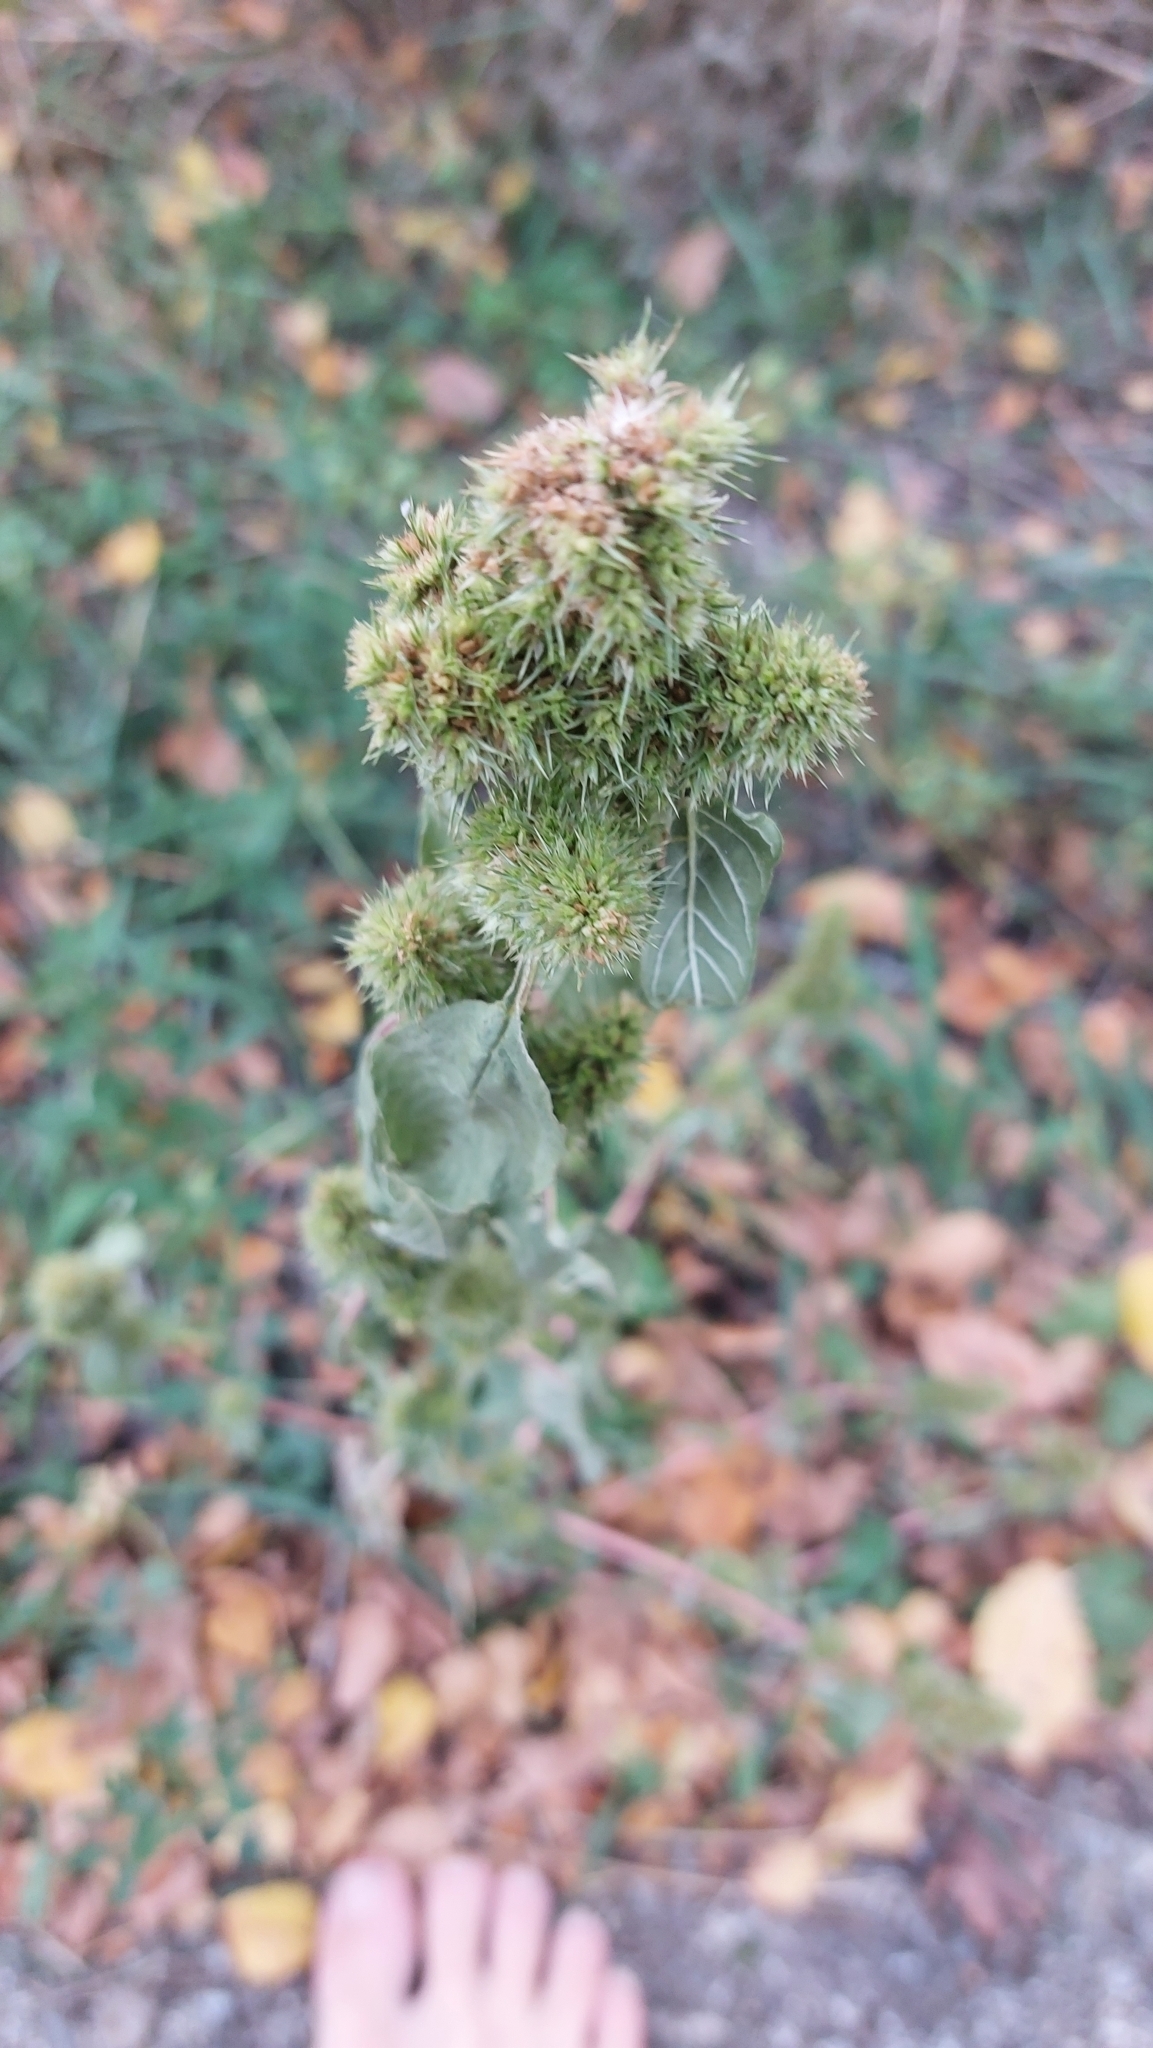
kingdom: Plantae
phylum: Tracheophyta
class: Magnoliopsida
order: Caryophyllales
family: Amaranthaceae
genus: Amaranthus
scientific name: Amaranthus retroflexus
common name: Redroot amaranth
